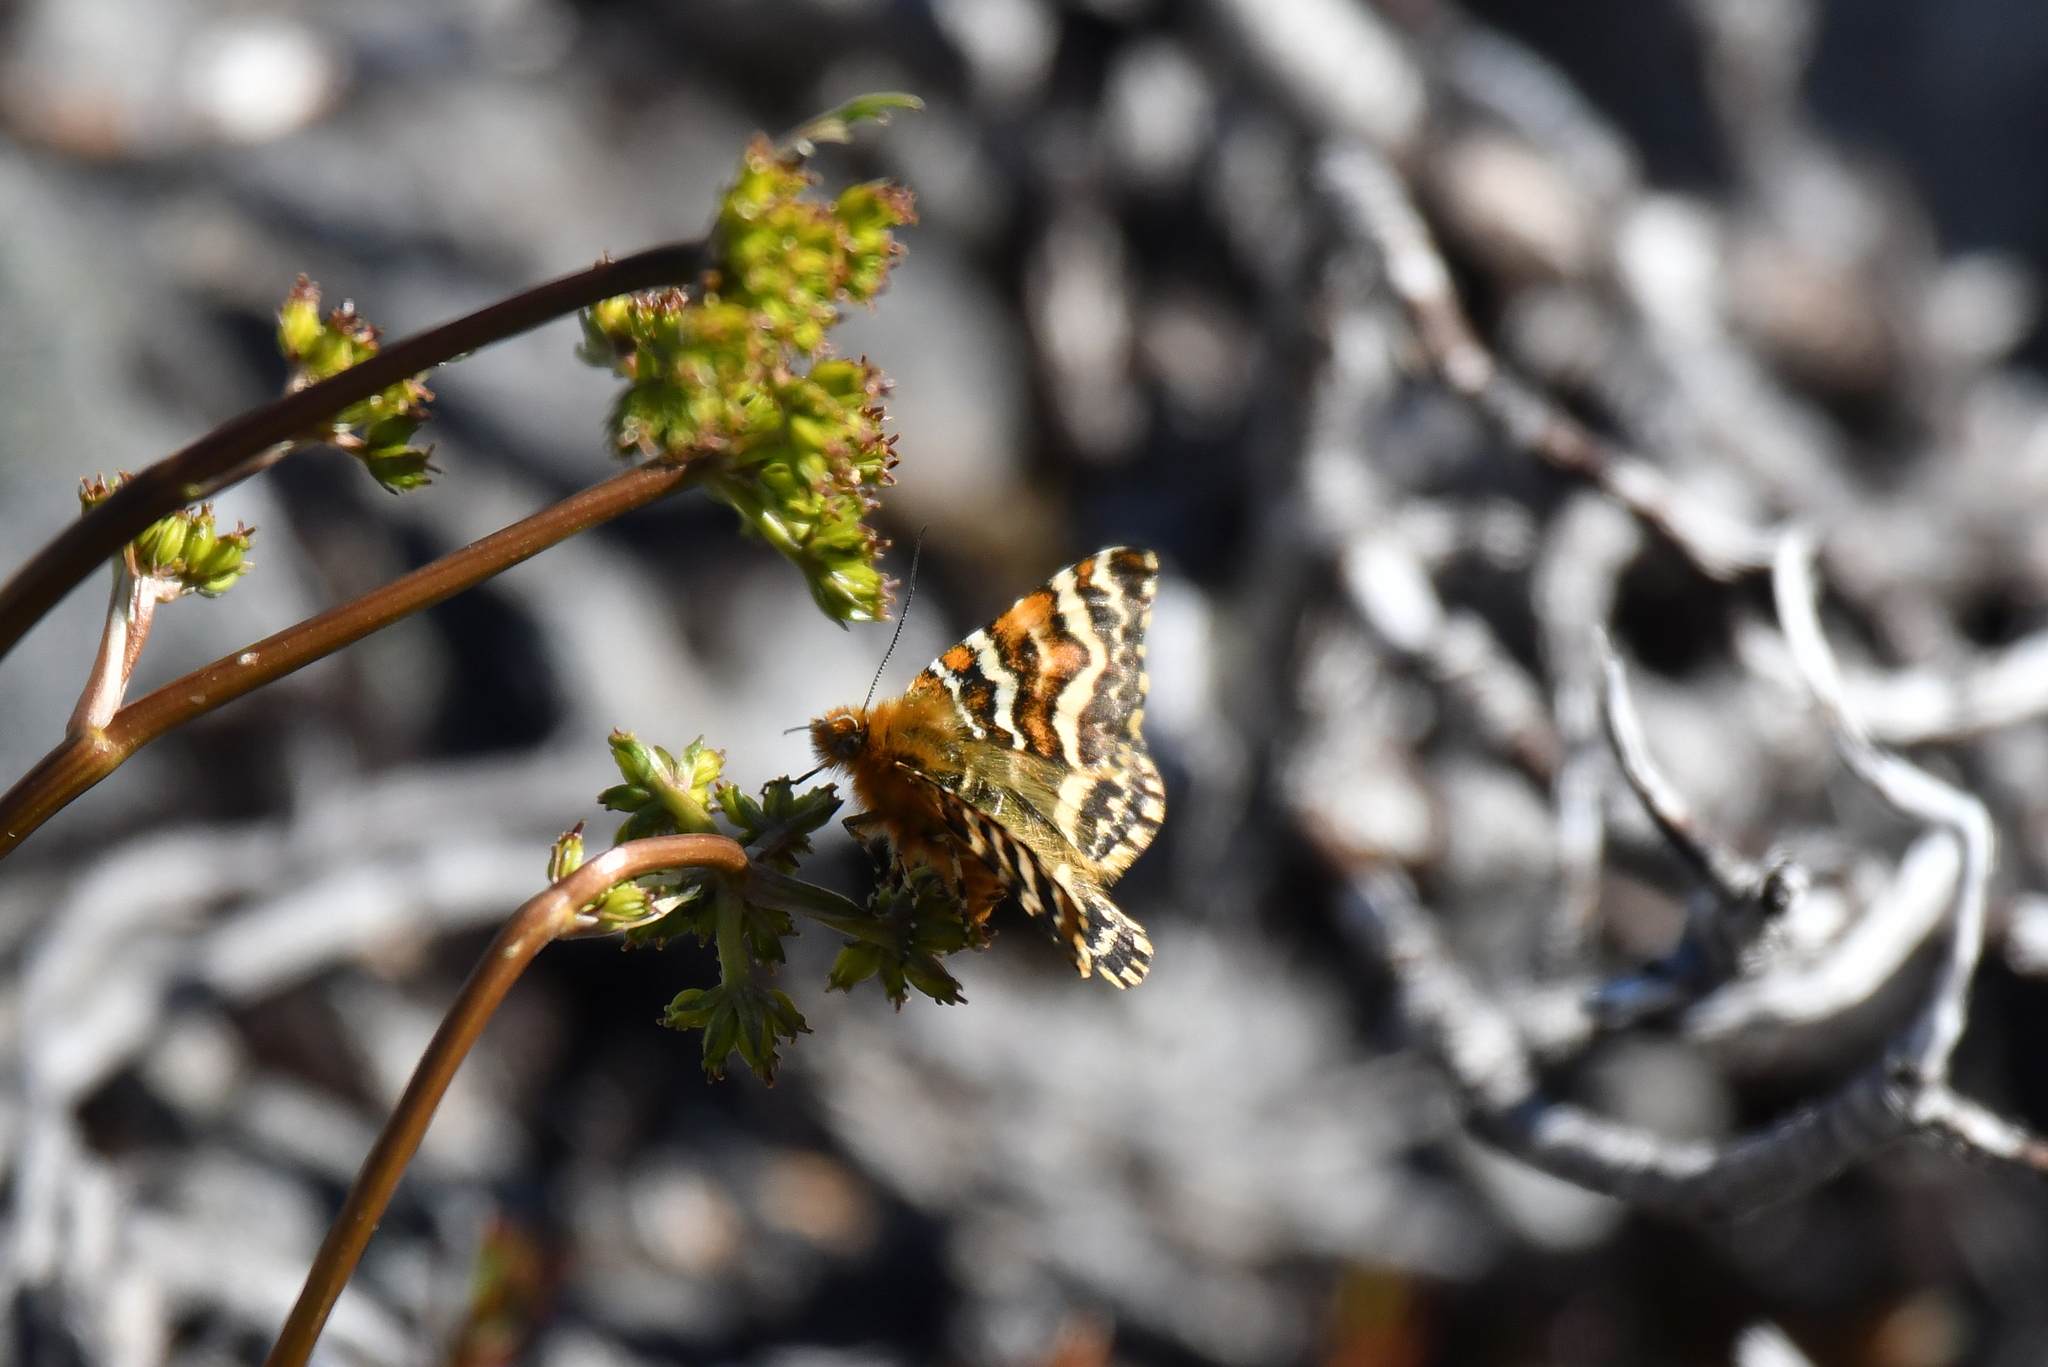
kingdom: Animalia
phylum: Arthropoda
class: Insecta
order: Lepidoptera
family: Geometridae
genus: Dasyuris
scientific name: Dasyuris strategica
